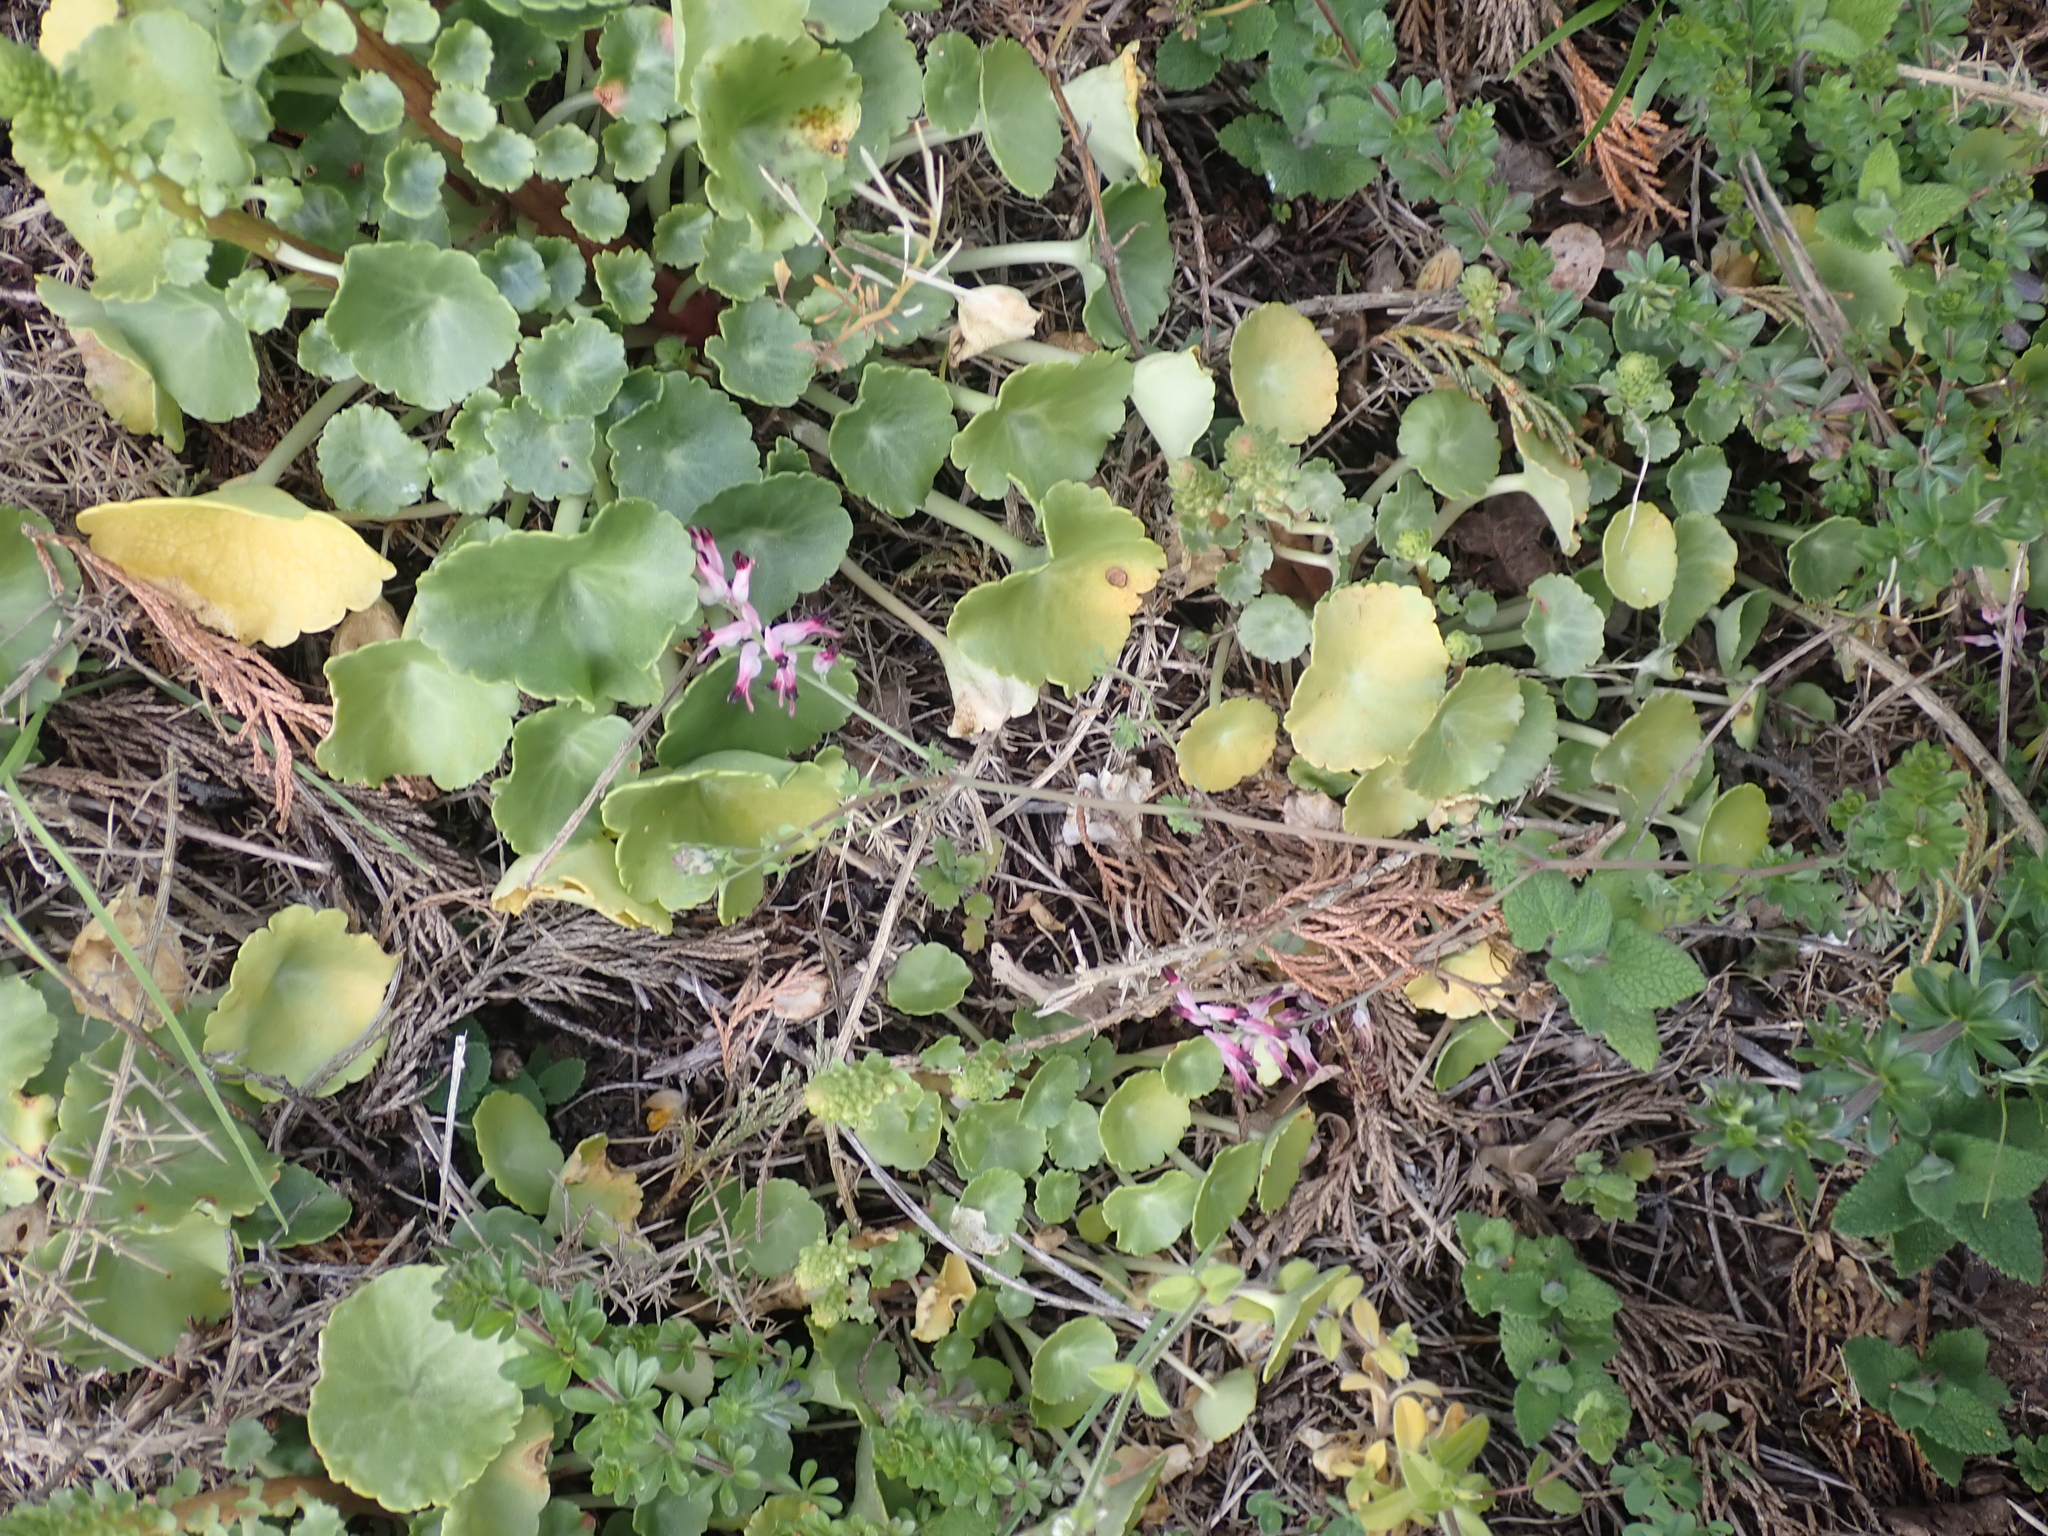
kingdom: Plantae
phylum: Tracheophyta
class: Magnoliopsida
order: Ranunculales
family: Papaveraceae
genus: Fumaria
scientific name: Fumaria muralis
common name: Common ramping-fumitory
